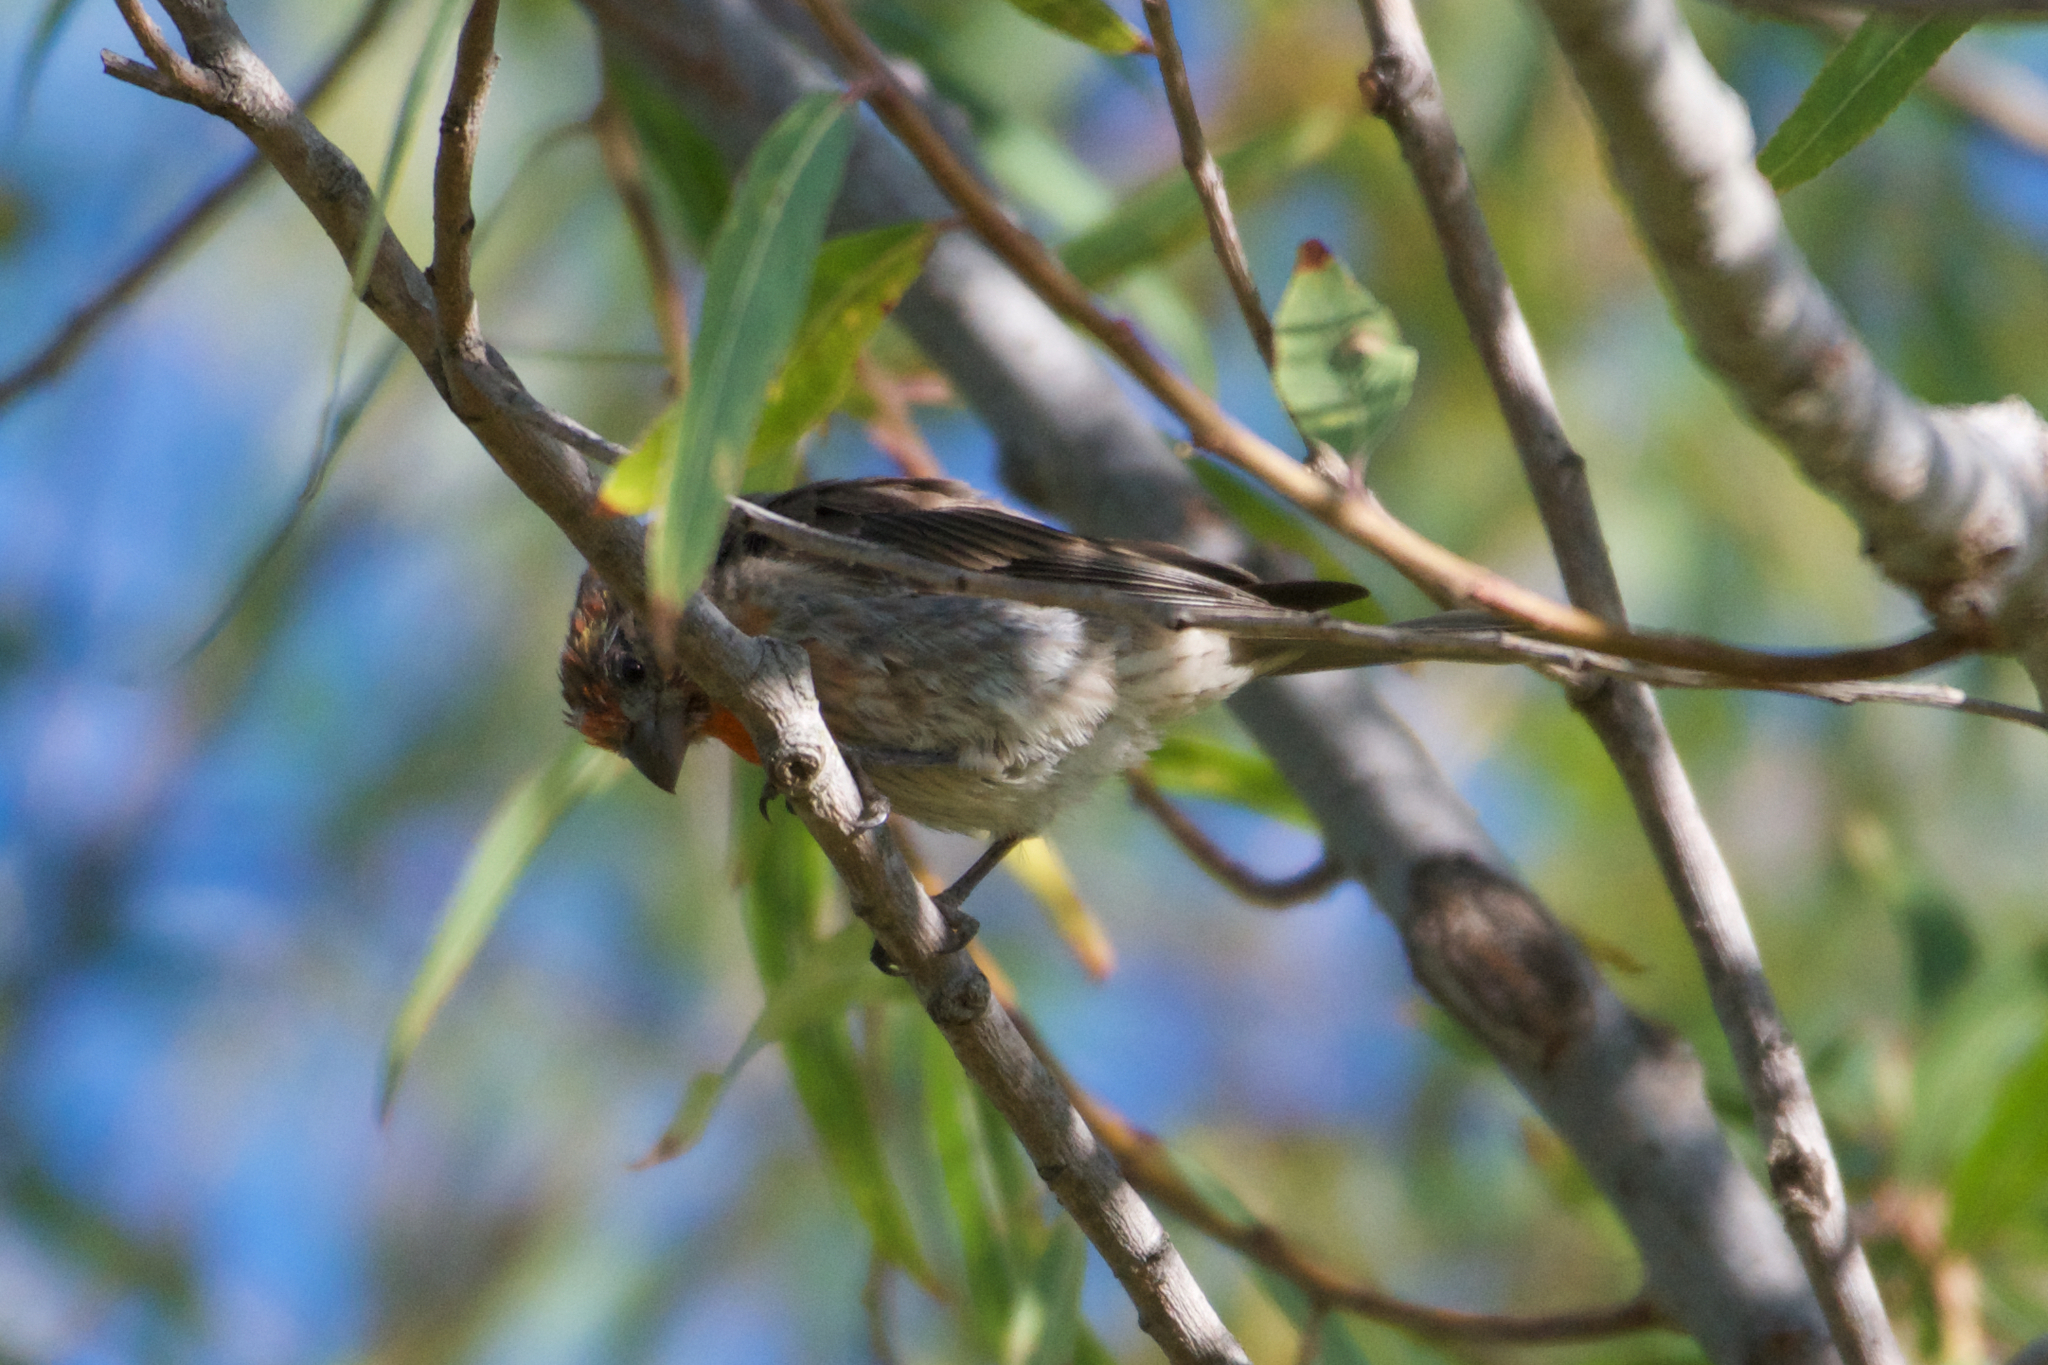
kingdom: Animalia
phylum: Chordata
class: Aves
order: Passeriformes
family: Fringillidae
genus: Haemorhous
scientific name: Haemorhous mexicanus
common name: House finch
